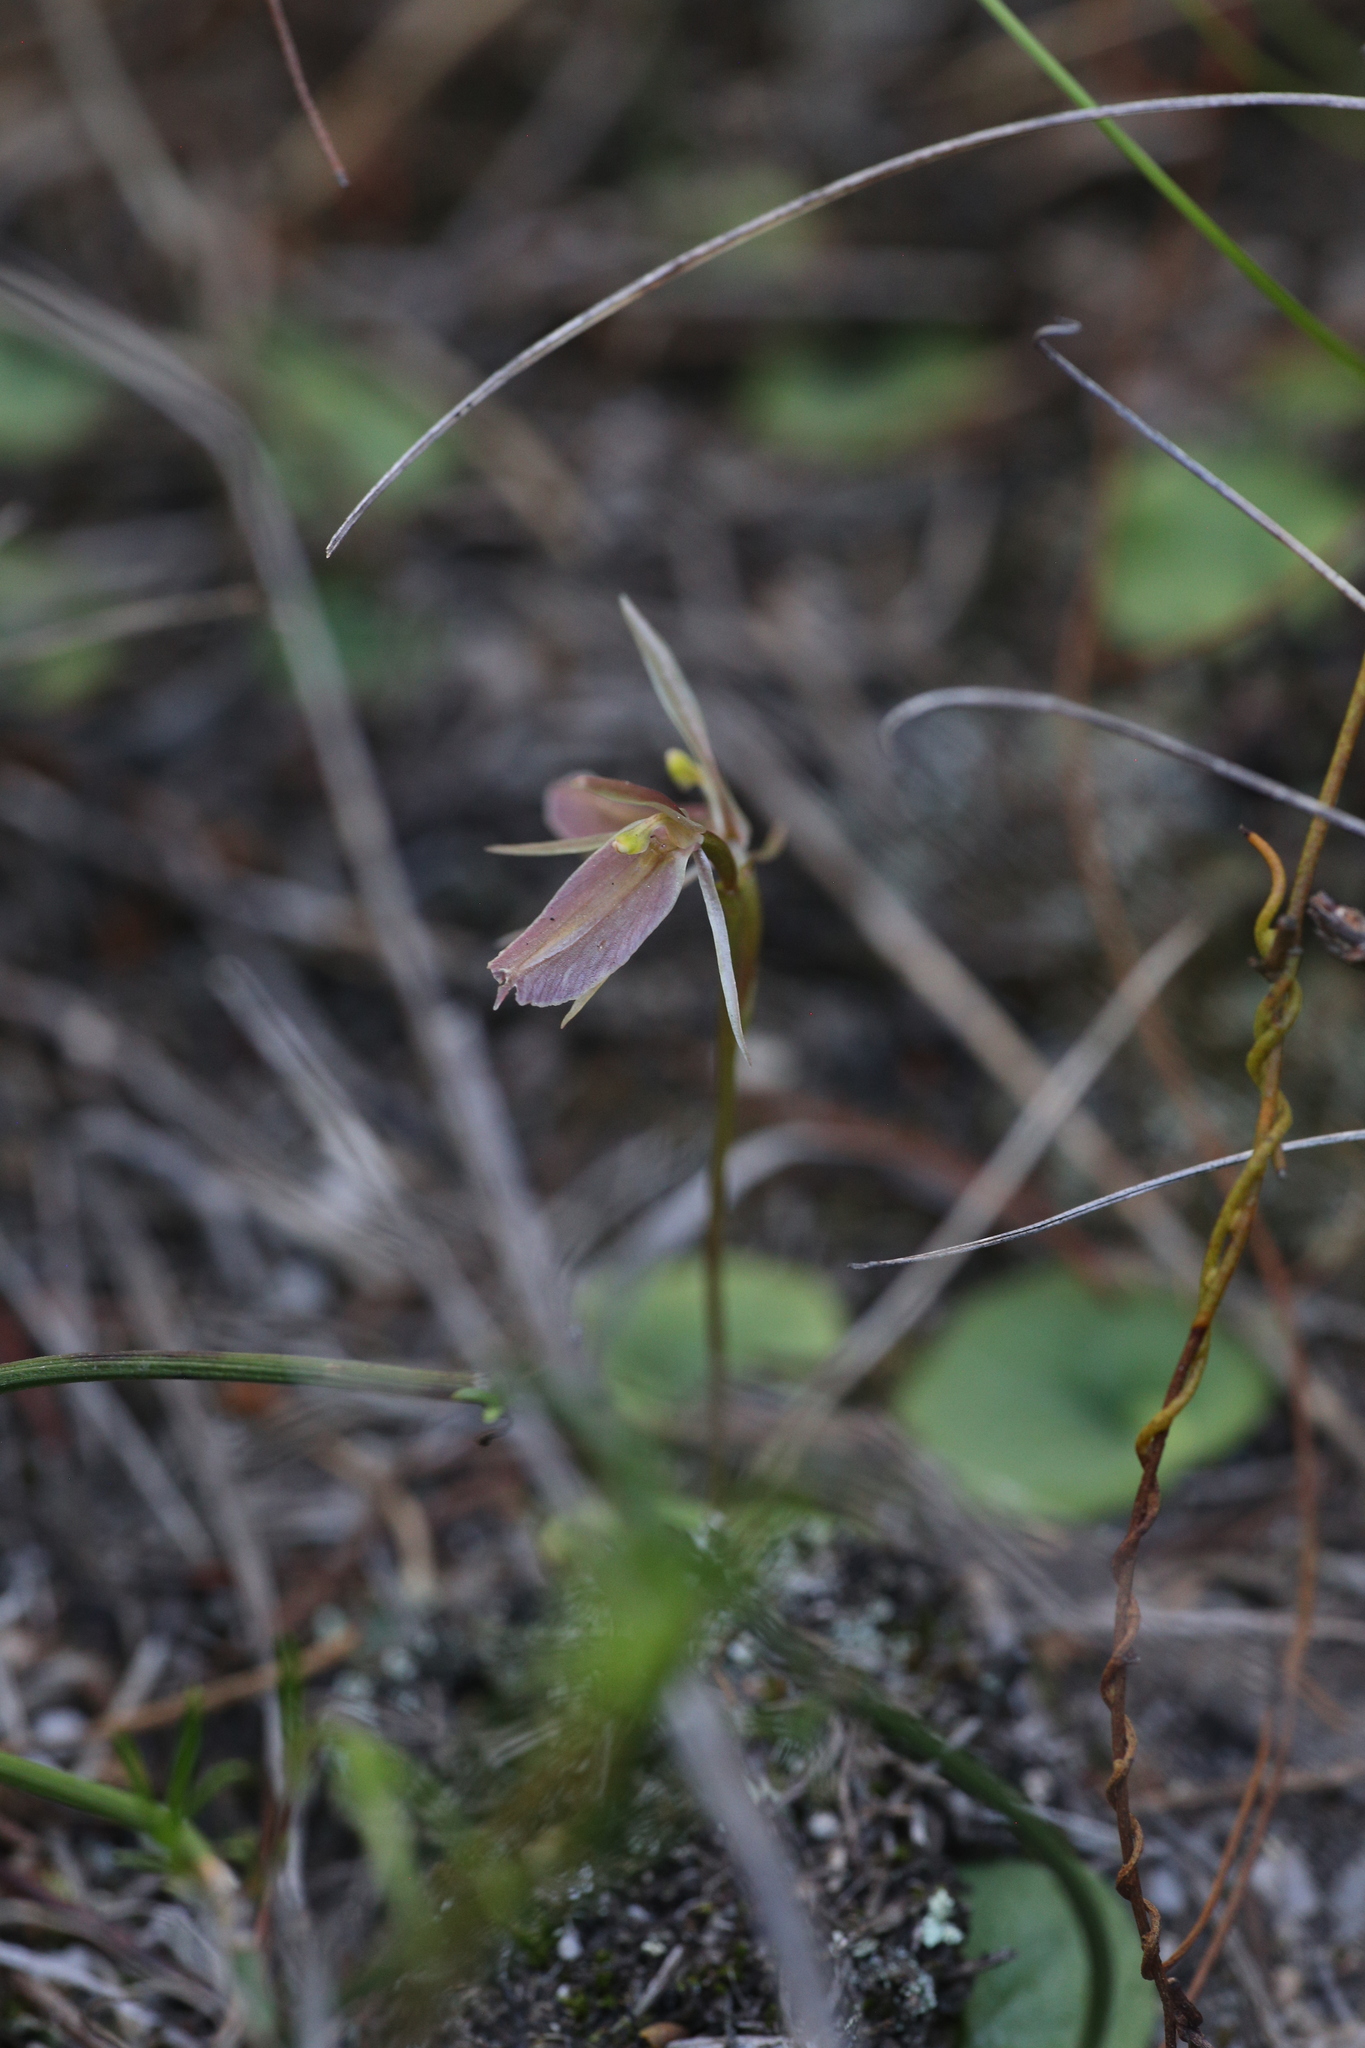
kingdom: Plantae
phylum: Tracheophyta
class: Liliopsida
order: Asparagales
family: Orchidaceae
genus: Cyrtostylis
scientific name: Cyrtostylis robusta
